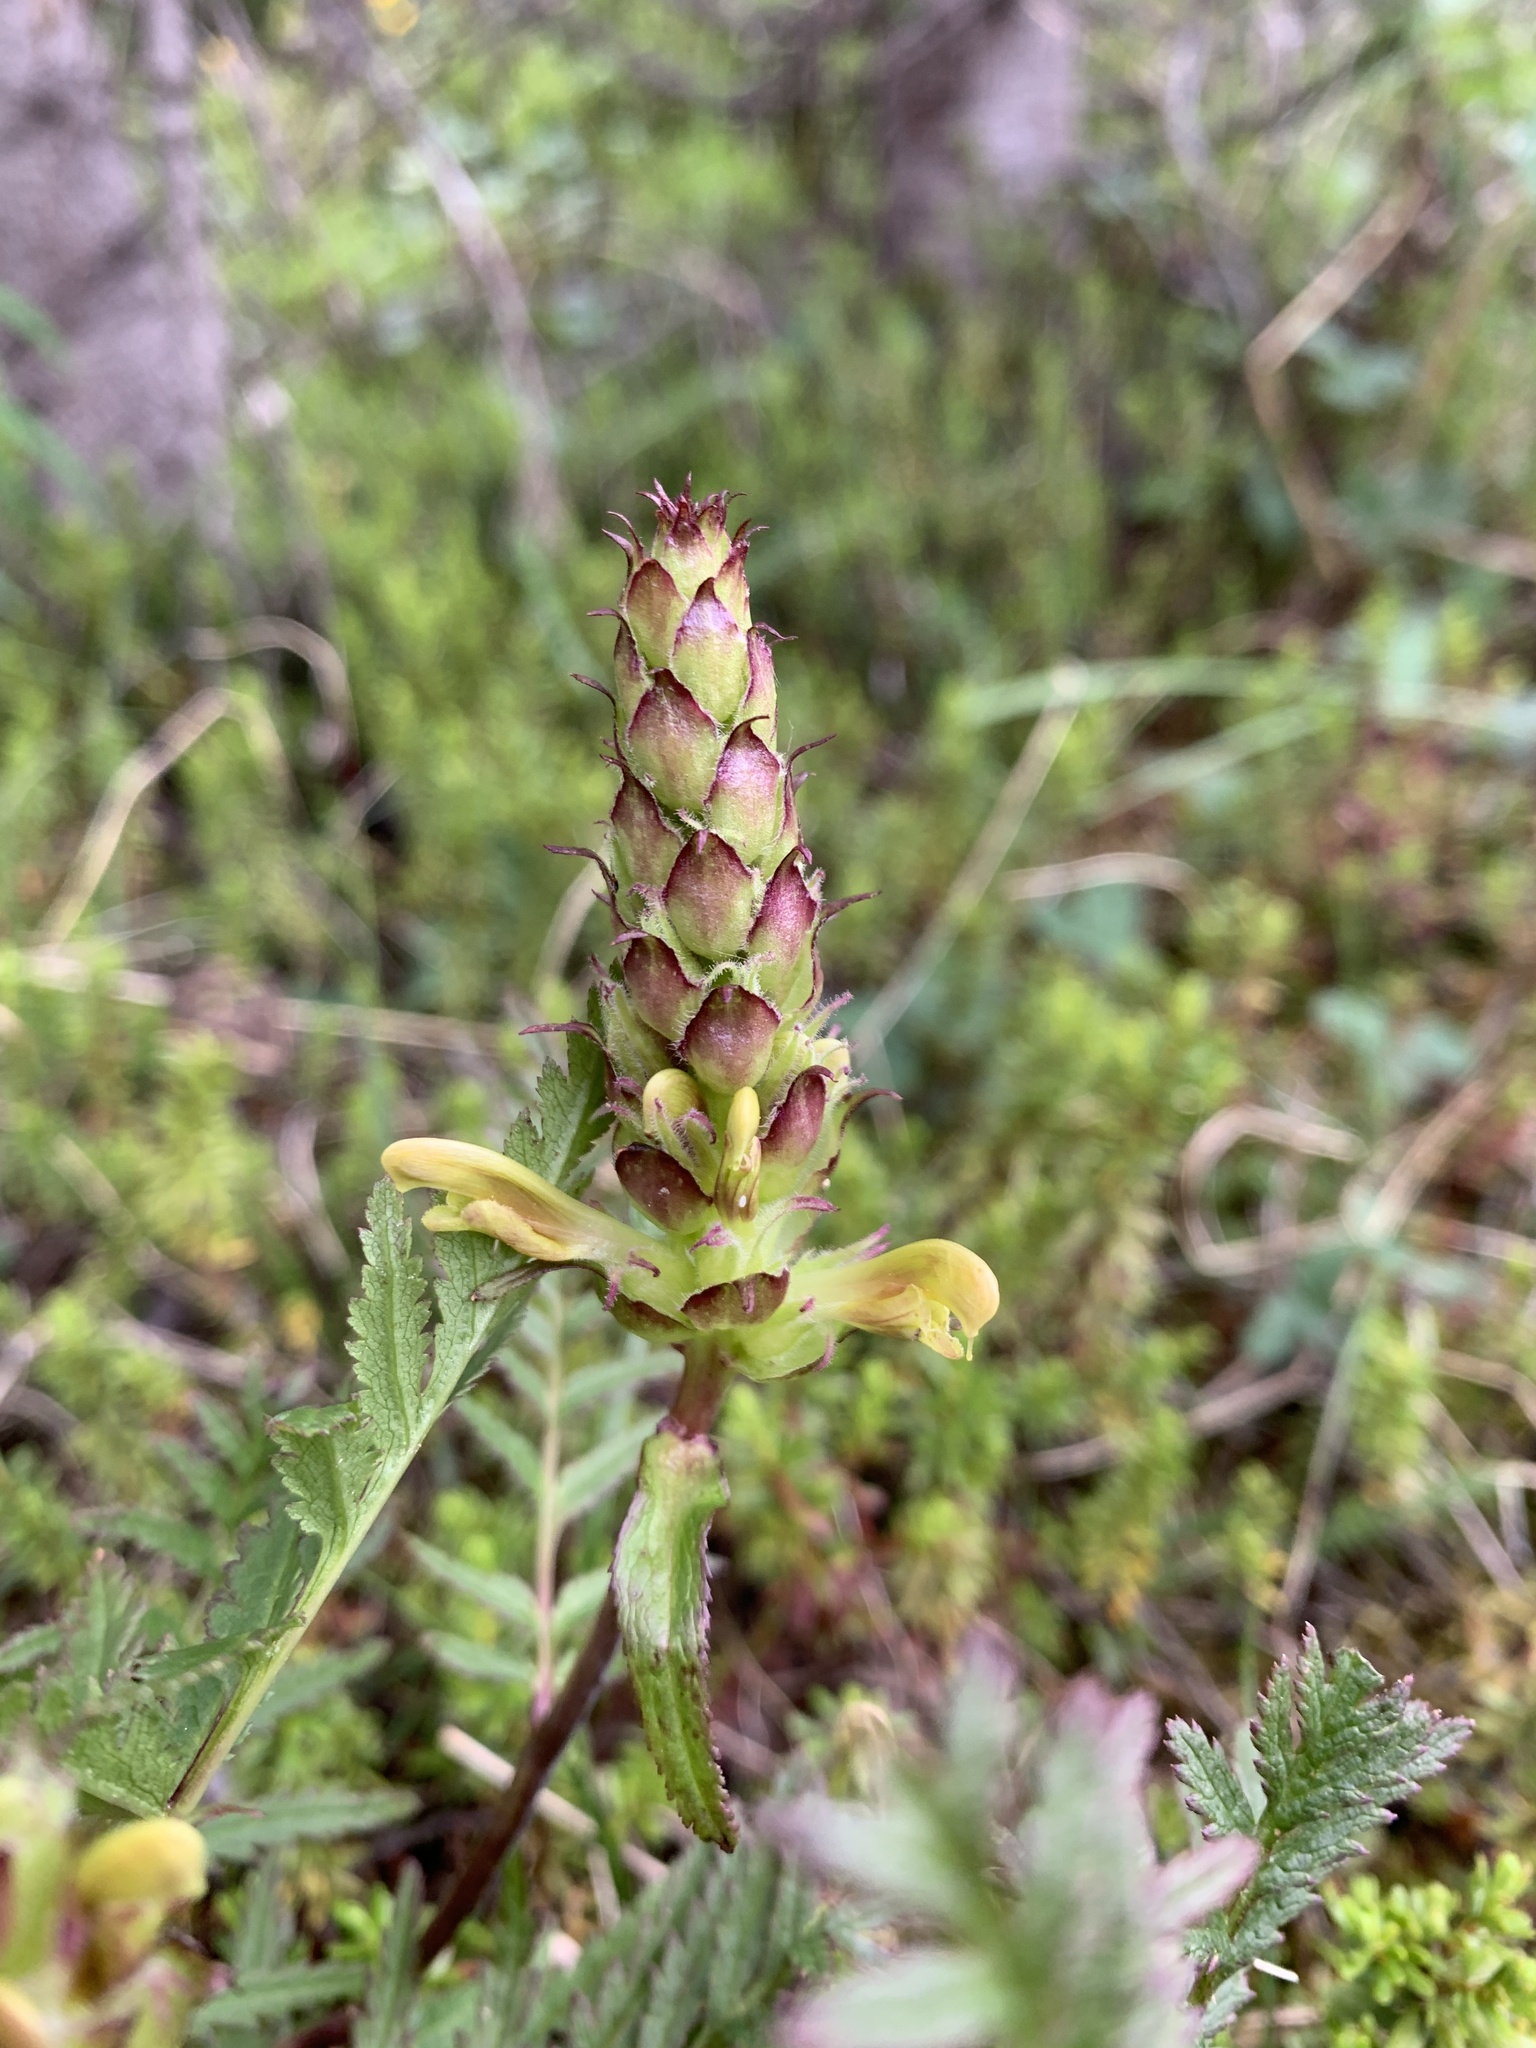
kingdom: Plantae
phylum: Tracheophyta
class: Magnoliopsida
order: Lamiales
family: Orobanchaceae
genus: Pedicularis
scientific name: Pedicularis bracteosa
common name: Bracted lousewort
